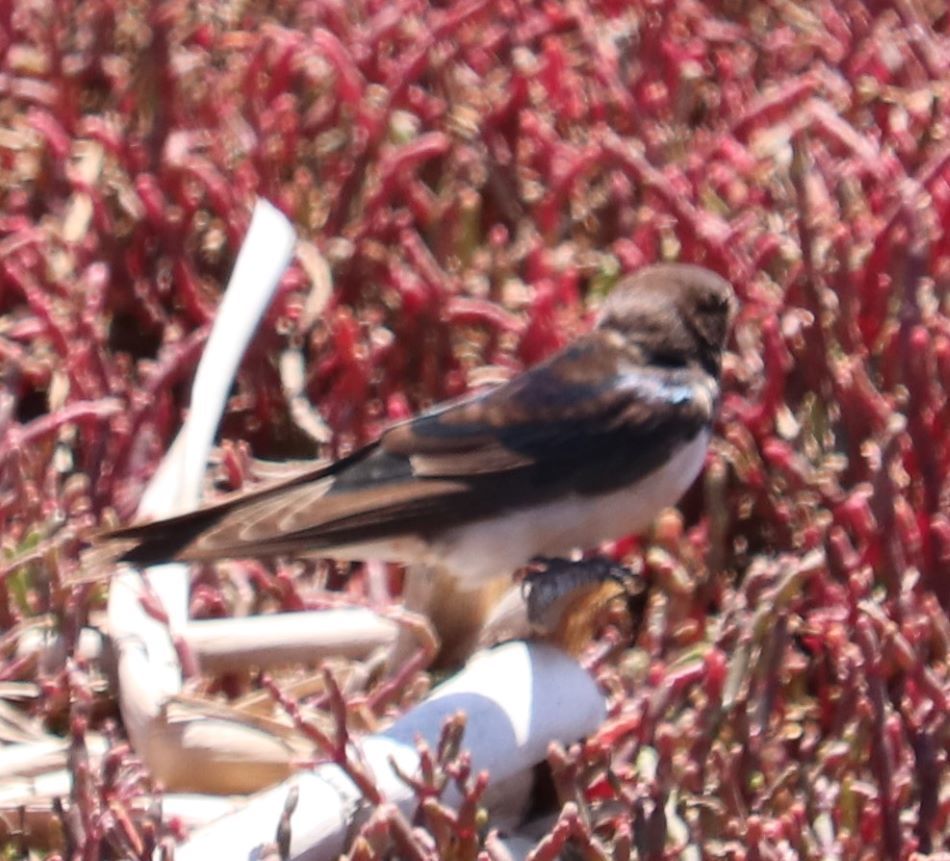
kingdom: Animalia
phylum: Chordata
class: Aves
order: Passeriformes
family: Hirundinidae
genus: Hirundo
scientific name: Hirundo rustica
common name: Barn swallow
